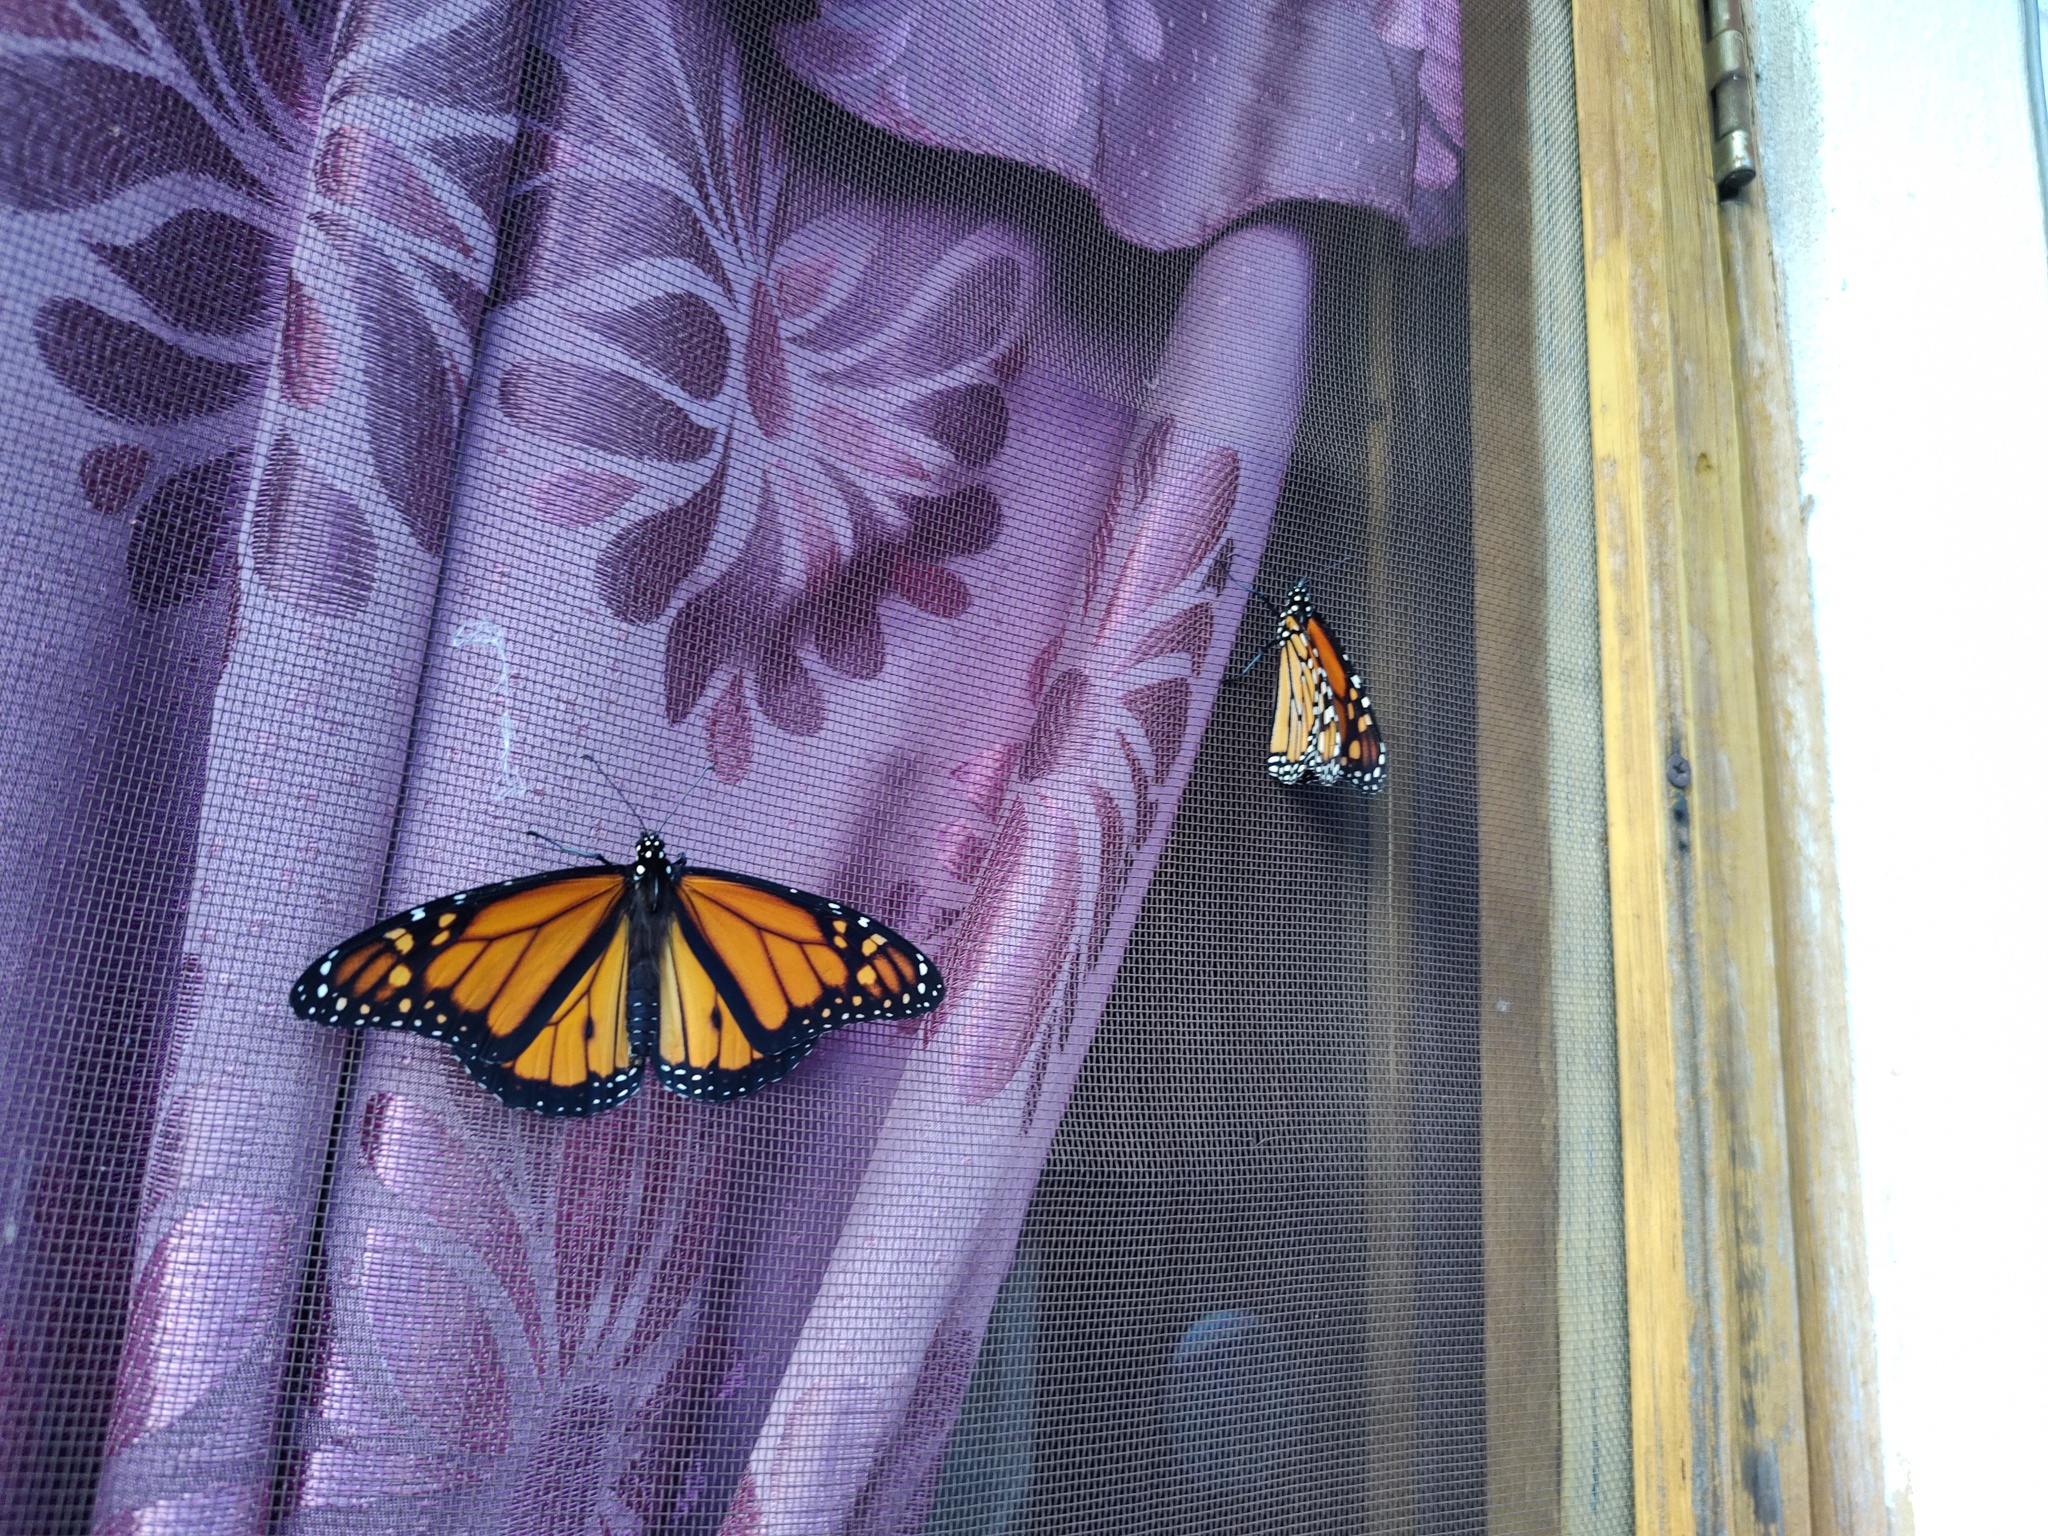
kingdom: Animalia
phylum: Arthropoda
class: Insecta
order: Lepidoptera
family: Nymphalidae
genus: Danaus
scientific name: Danaus plexippus
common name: Monarch
